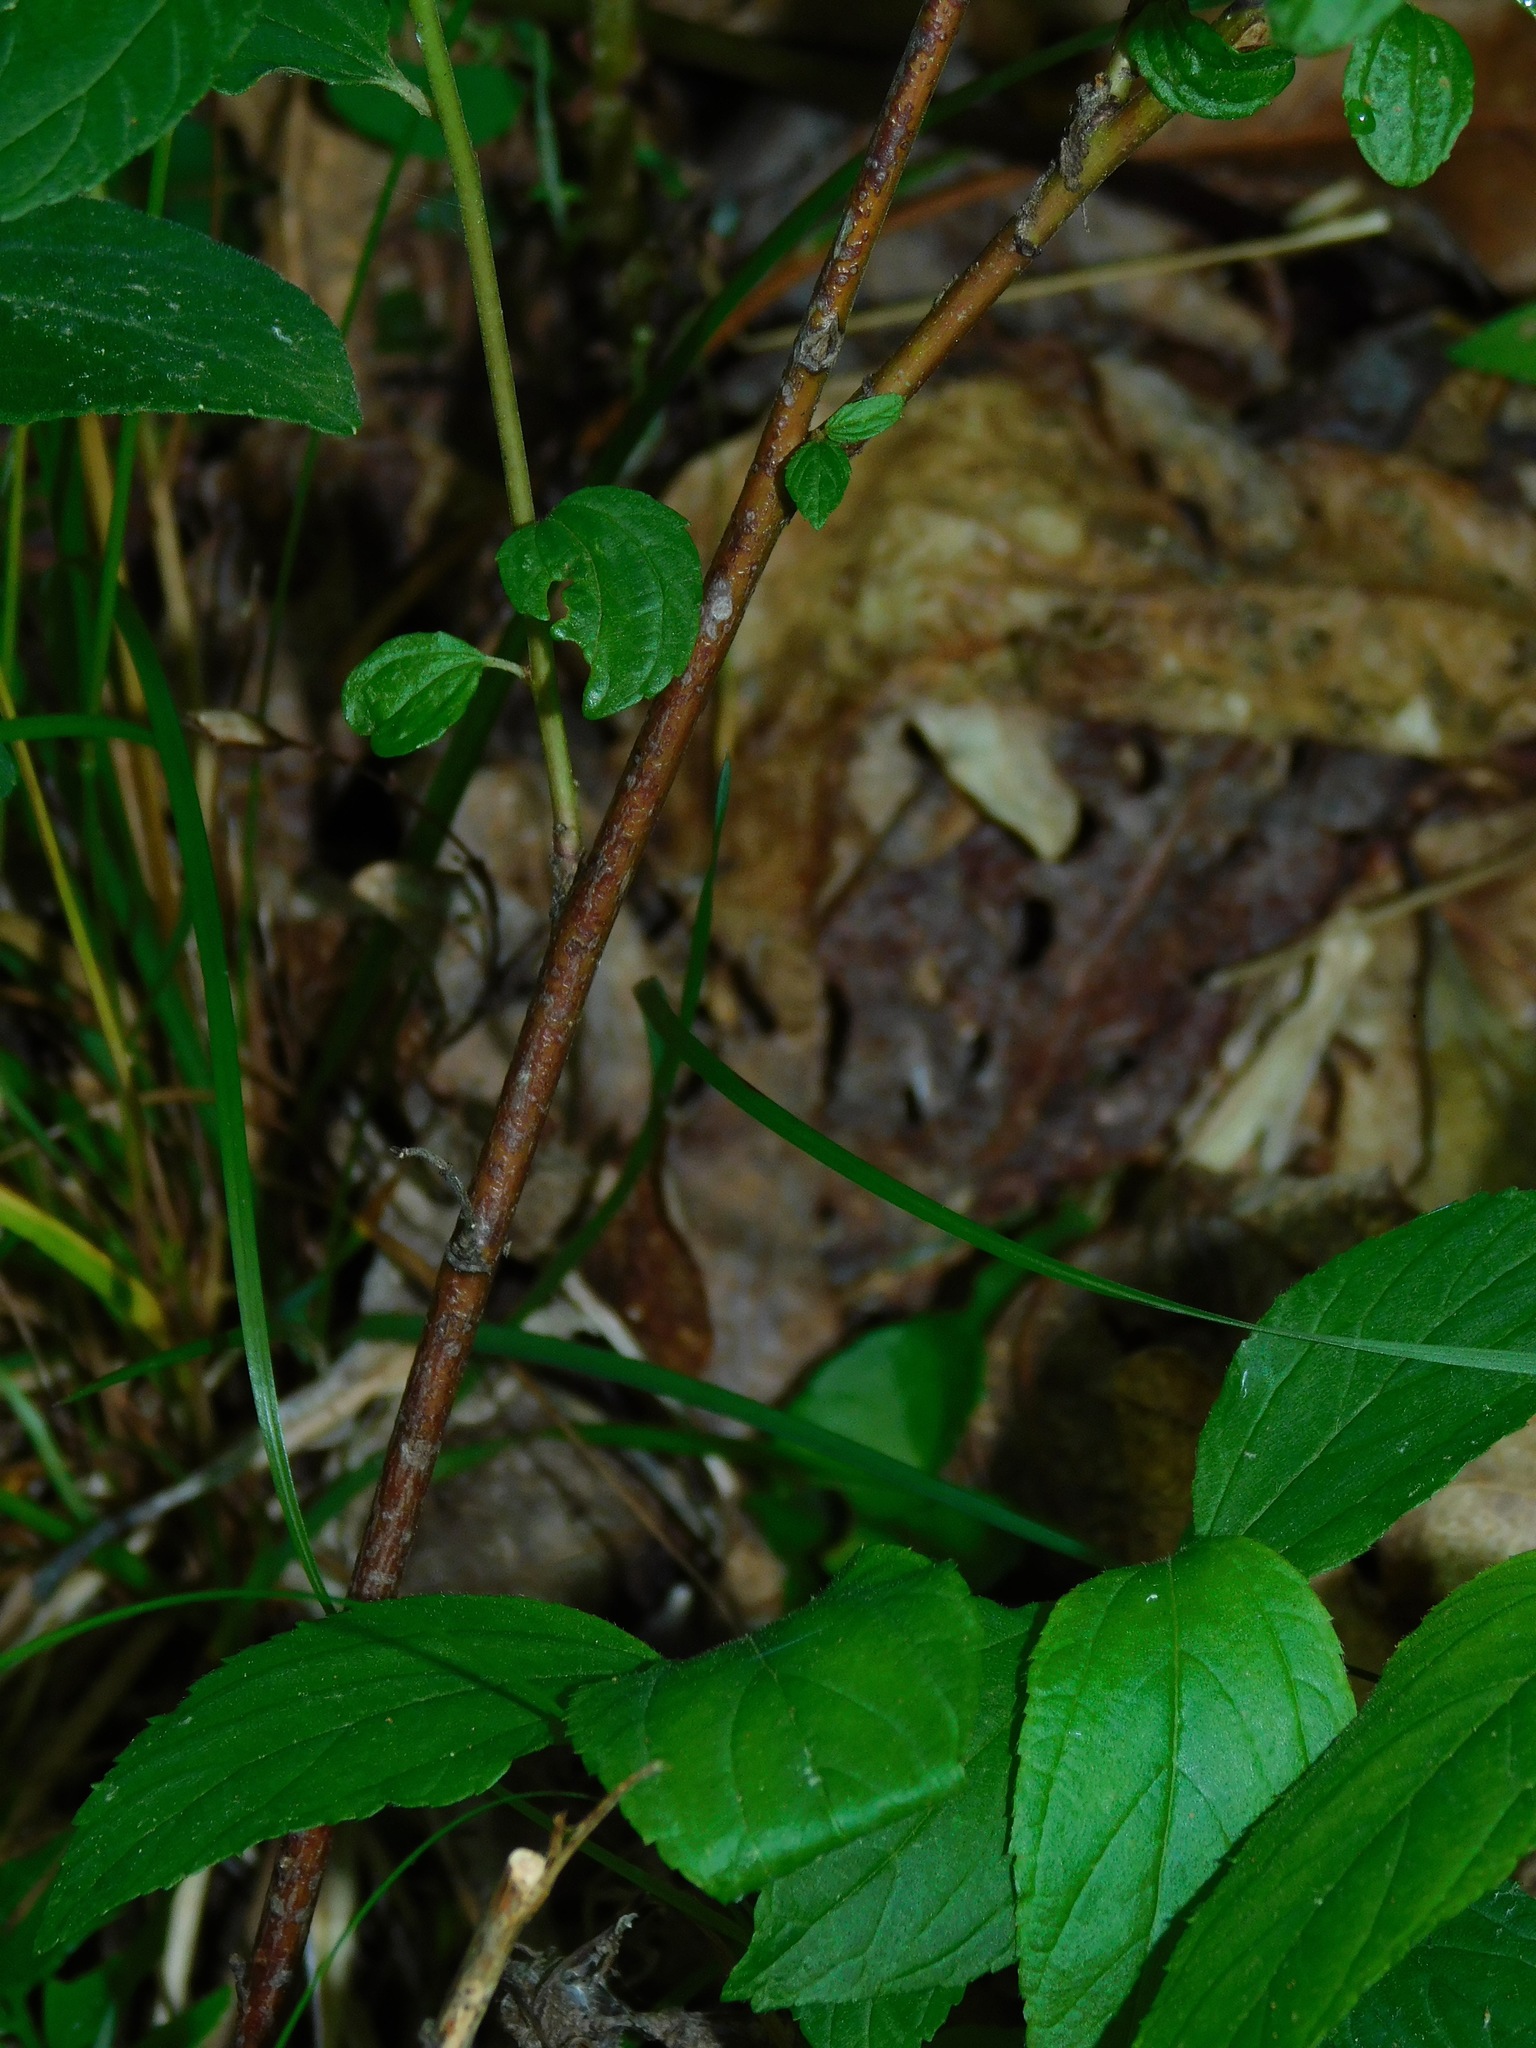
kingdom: Plantae
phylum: Tracheophyta
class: Magnoliopsida
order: Rosales
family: Rhamnaceae
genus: Ceanothus
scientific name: Ceanothus americanus
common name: Redroot
